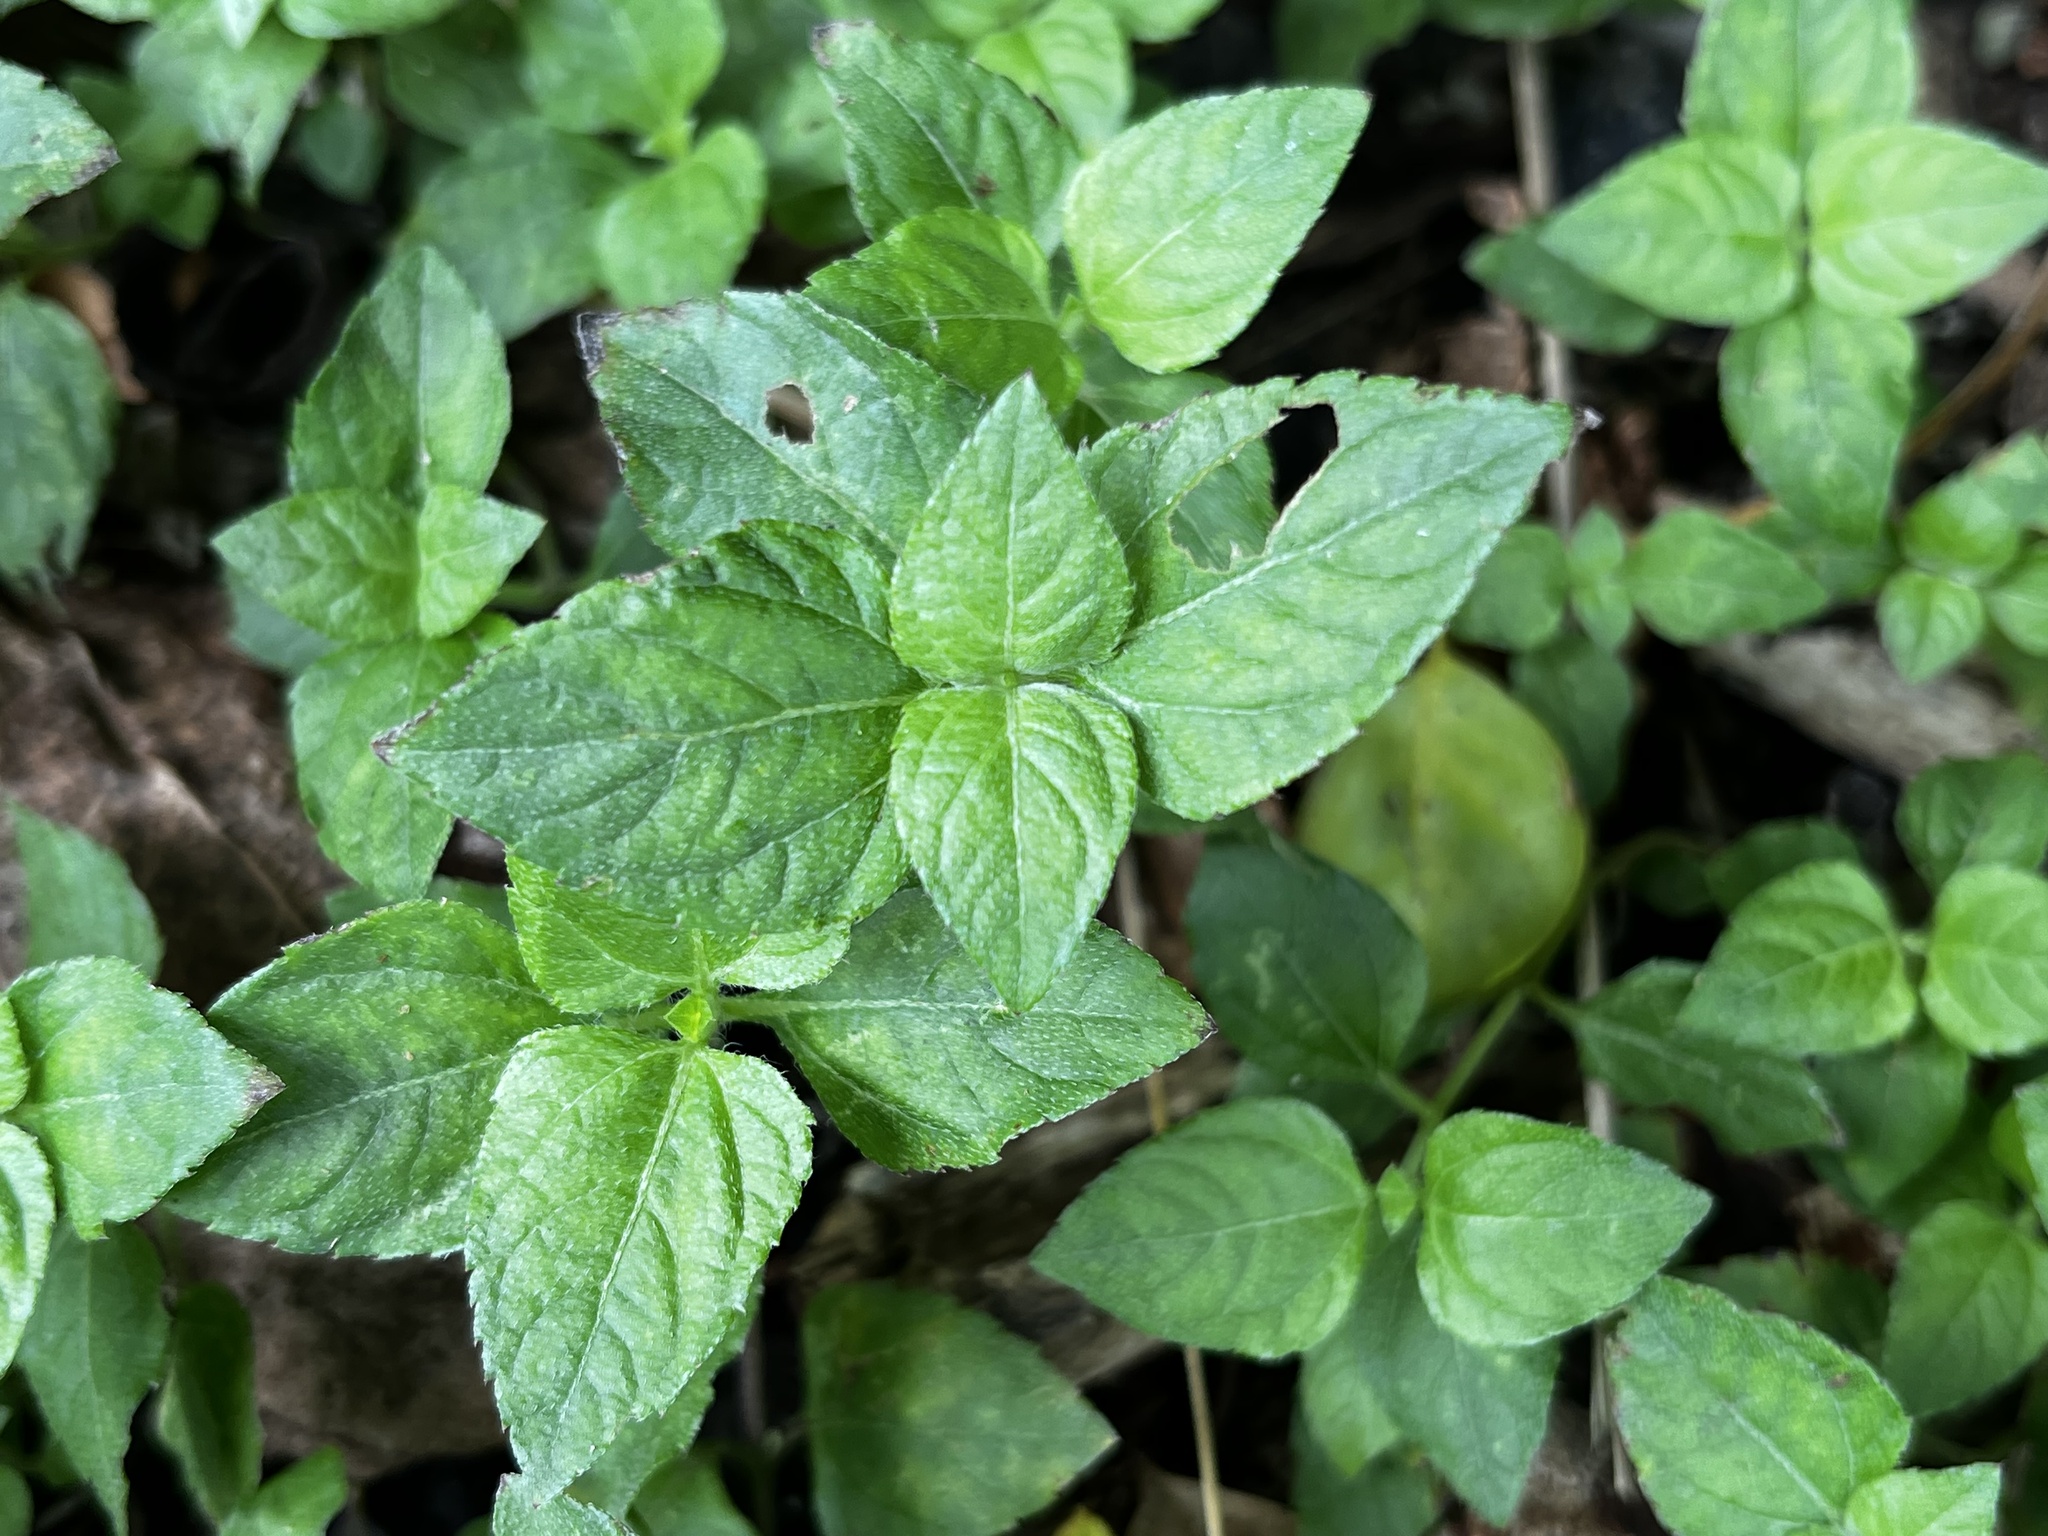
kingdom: Plantae
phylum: Tracheophyta
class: Magnoliopsida
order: Lamiales
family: Acanthaceae
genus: Ruellia
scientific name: Ruellia repens
